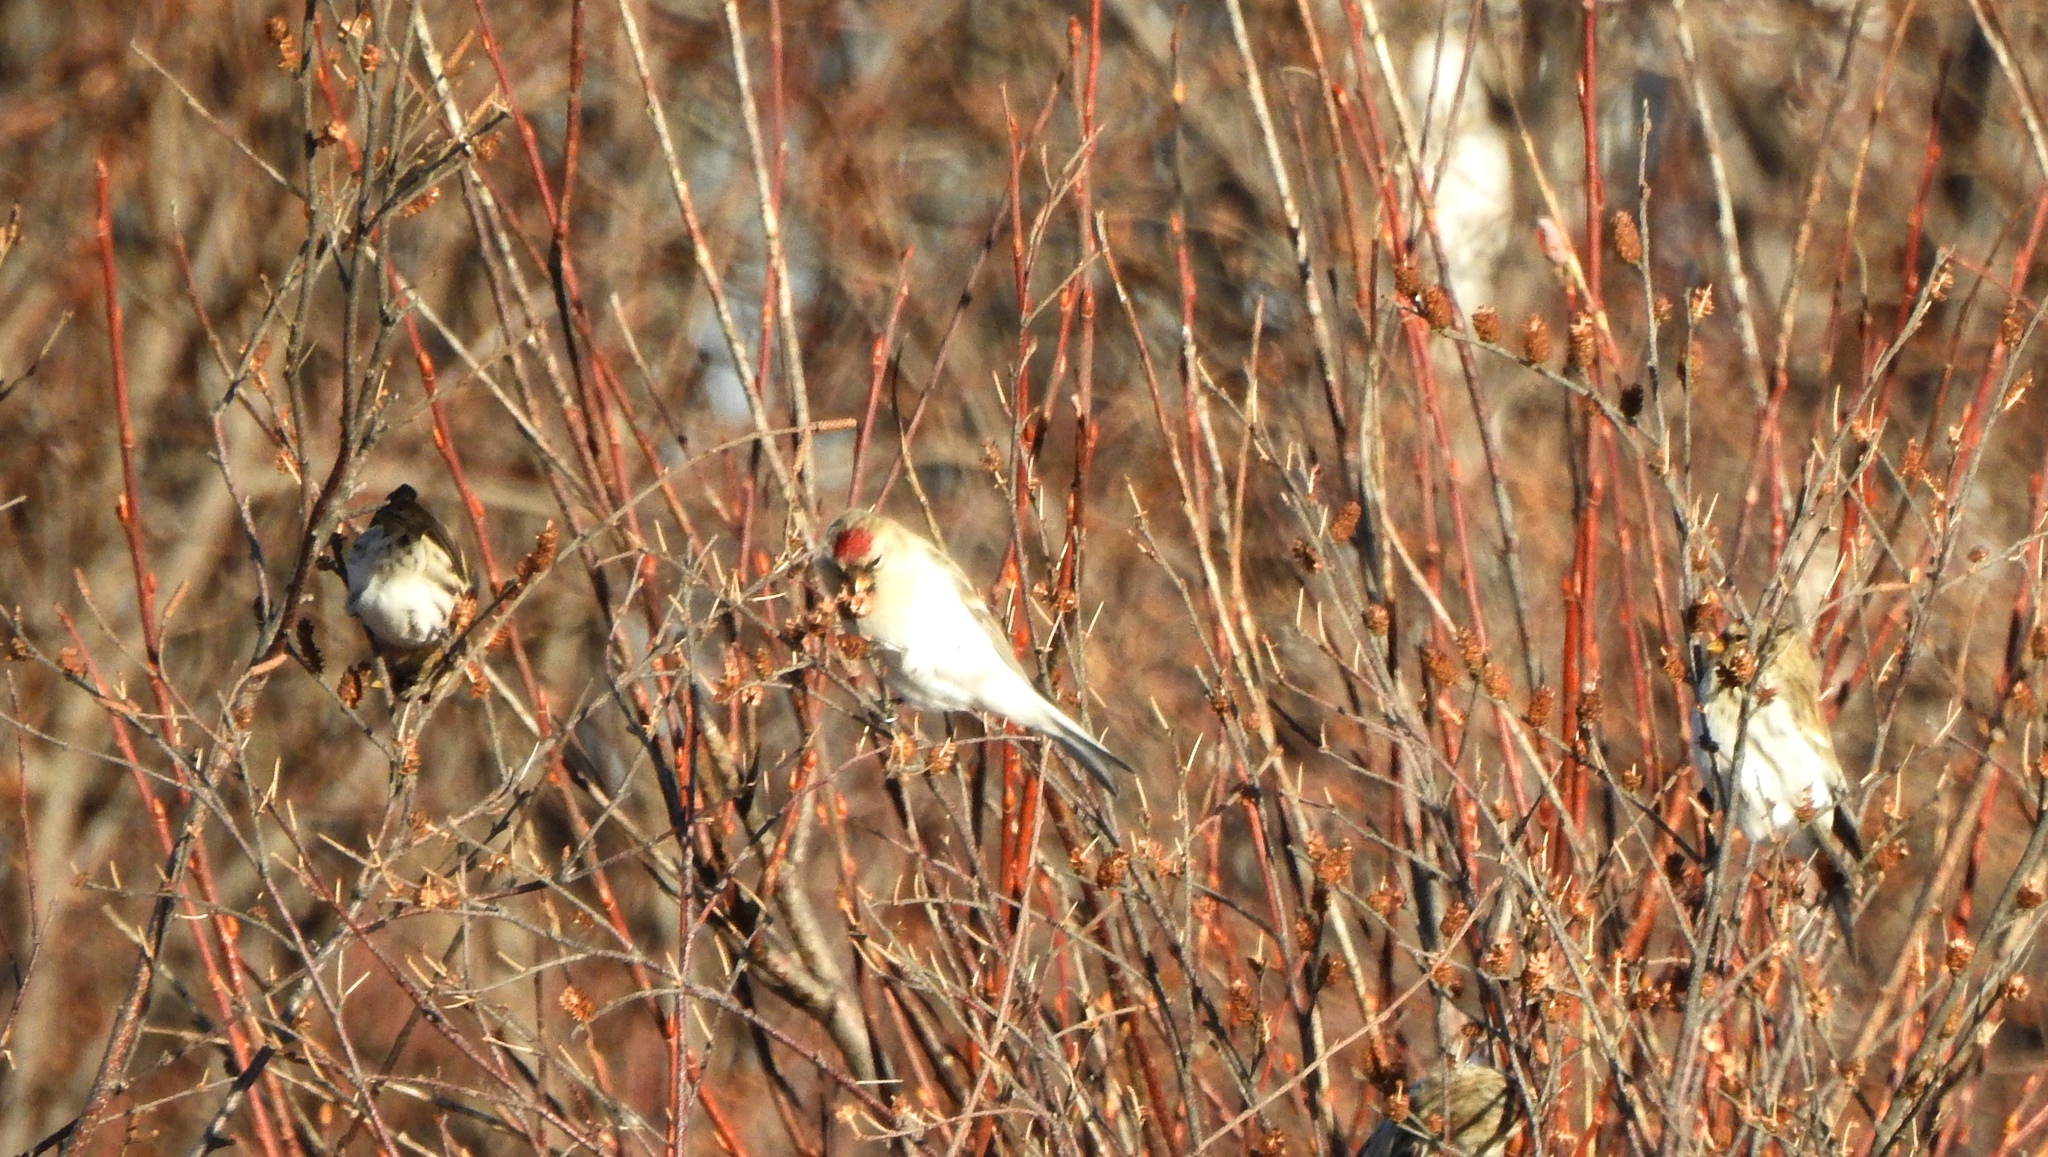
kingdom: Animalia
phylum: Chordata
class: Aves
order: Passeriformes
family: Fringillidae
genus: Acanthis
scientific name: Acanthis flammea
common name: Common redpoll
